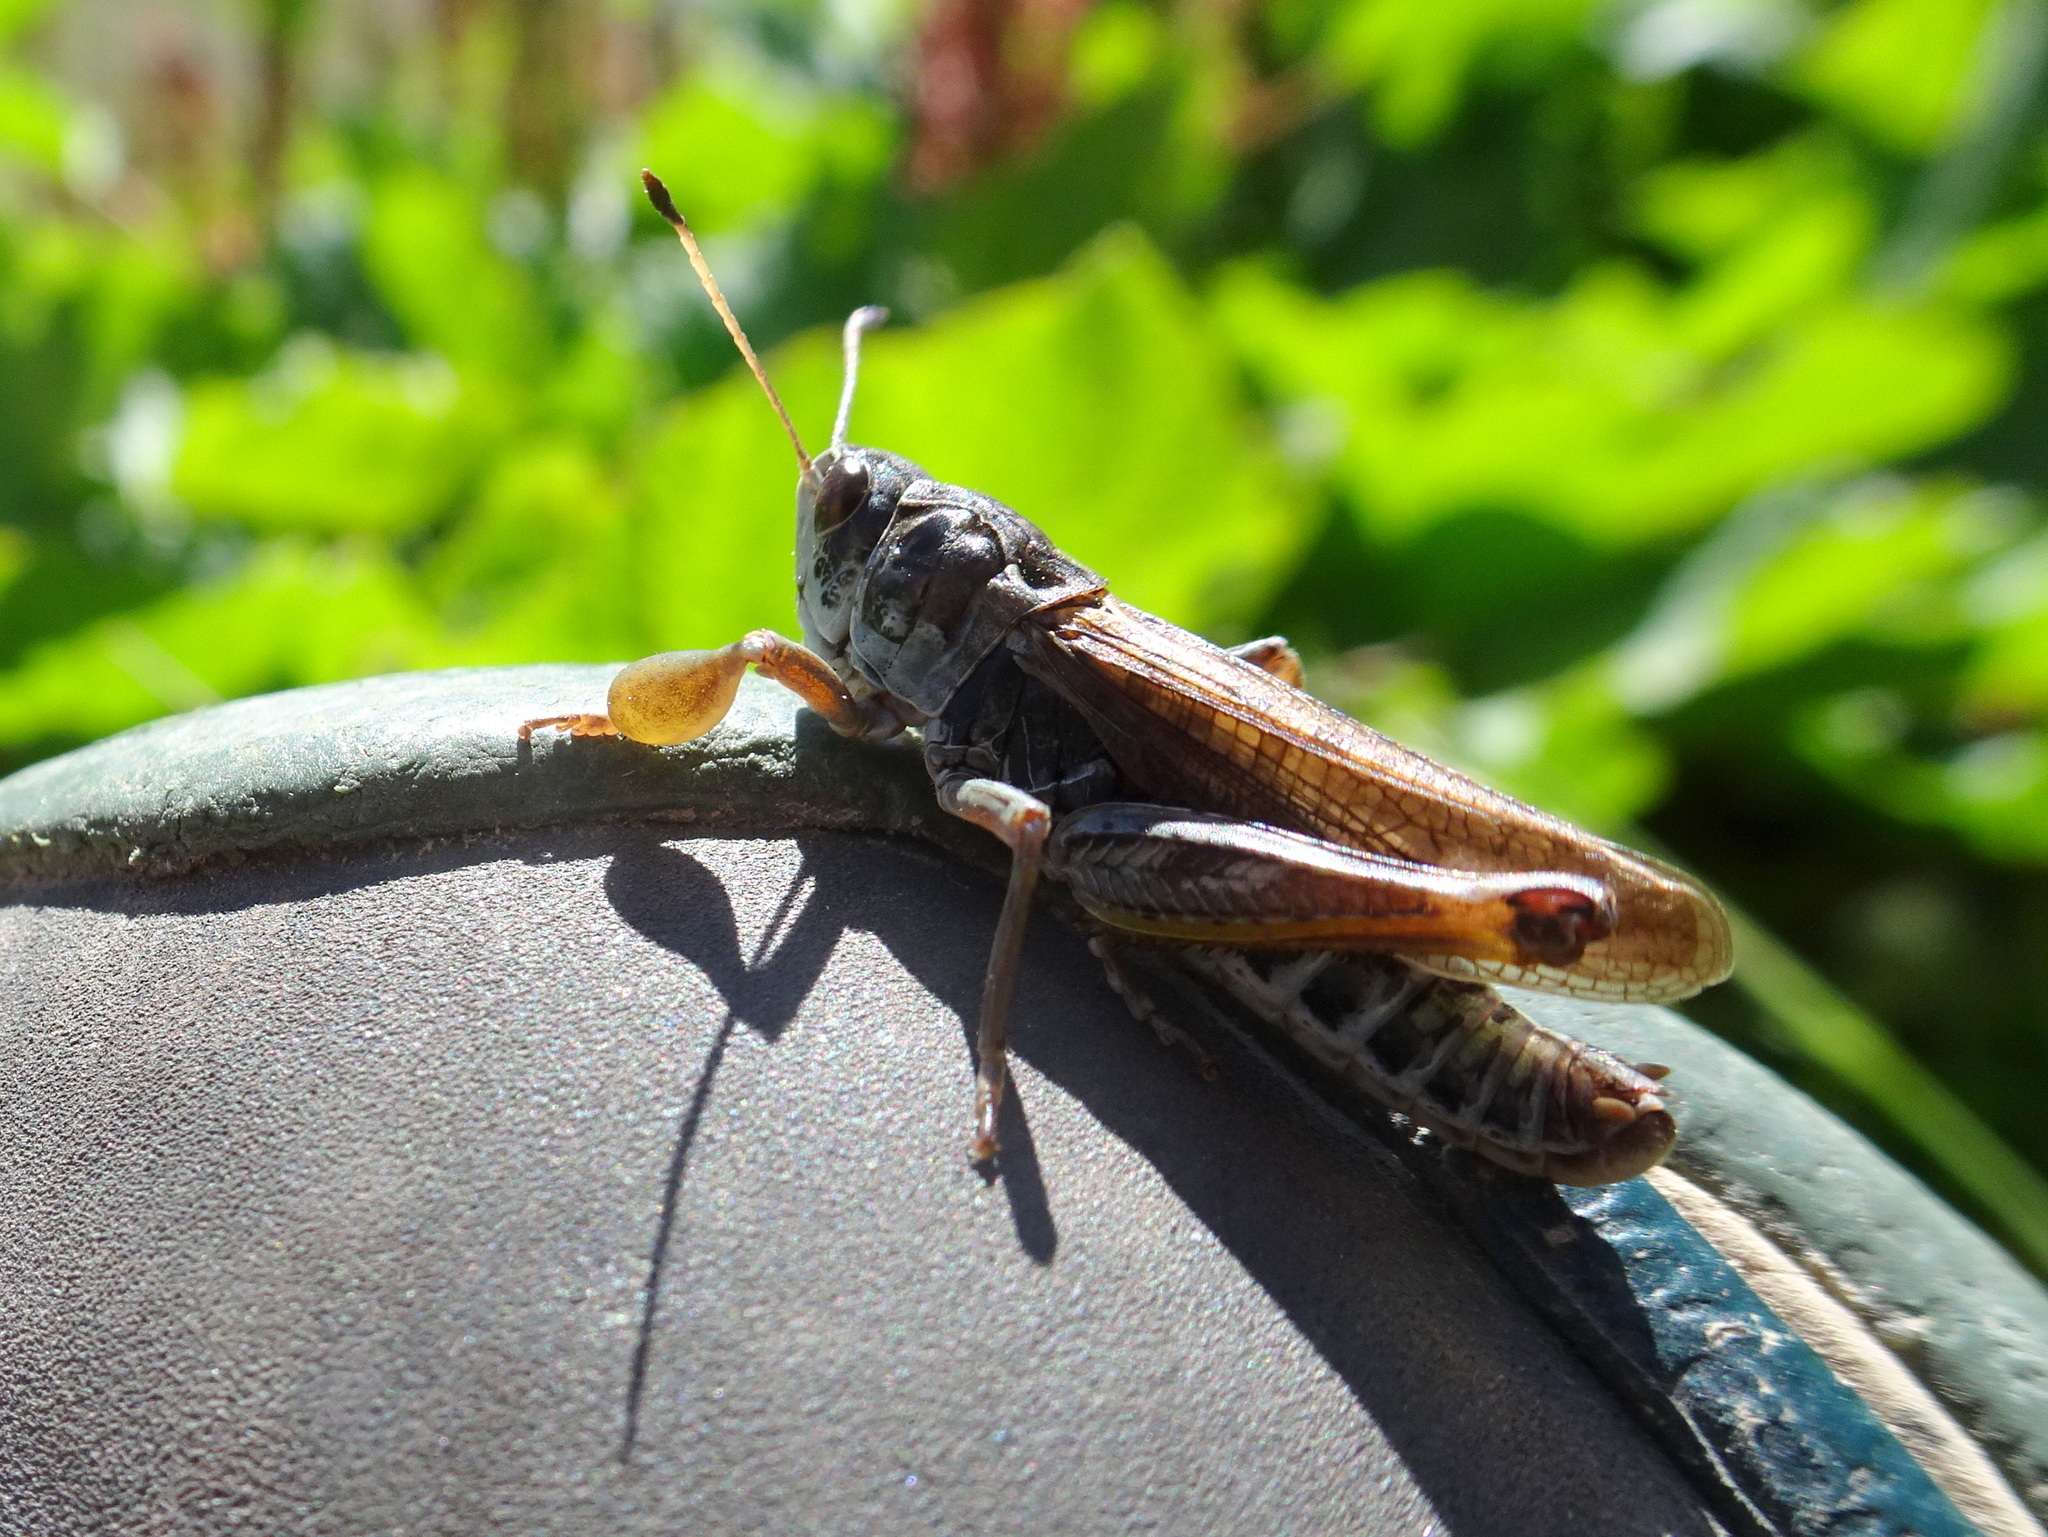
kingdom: Animalia
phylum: Arthropoda
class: Insecta
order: Orthoptera
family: Acrididae
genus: Gomphocerus
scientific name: Gomphocerus sibiricus
